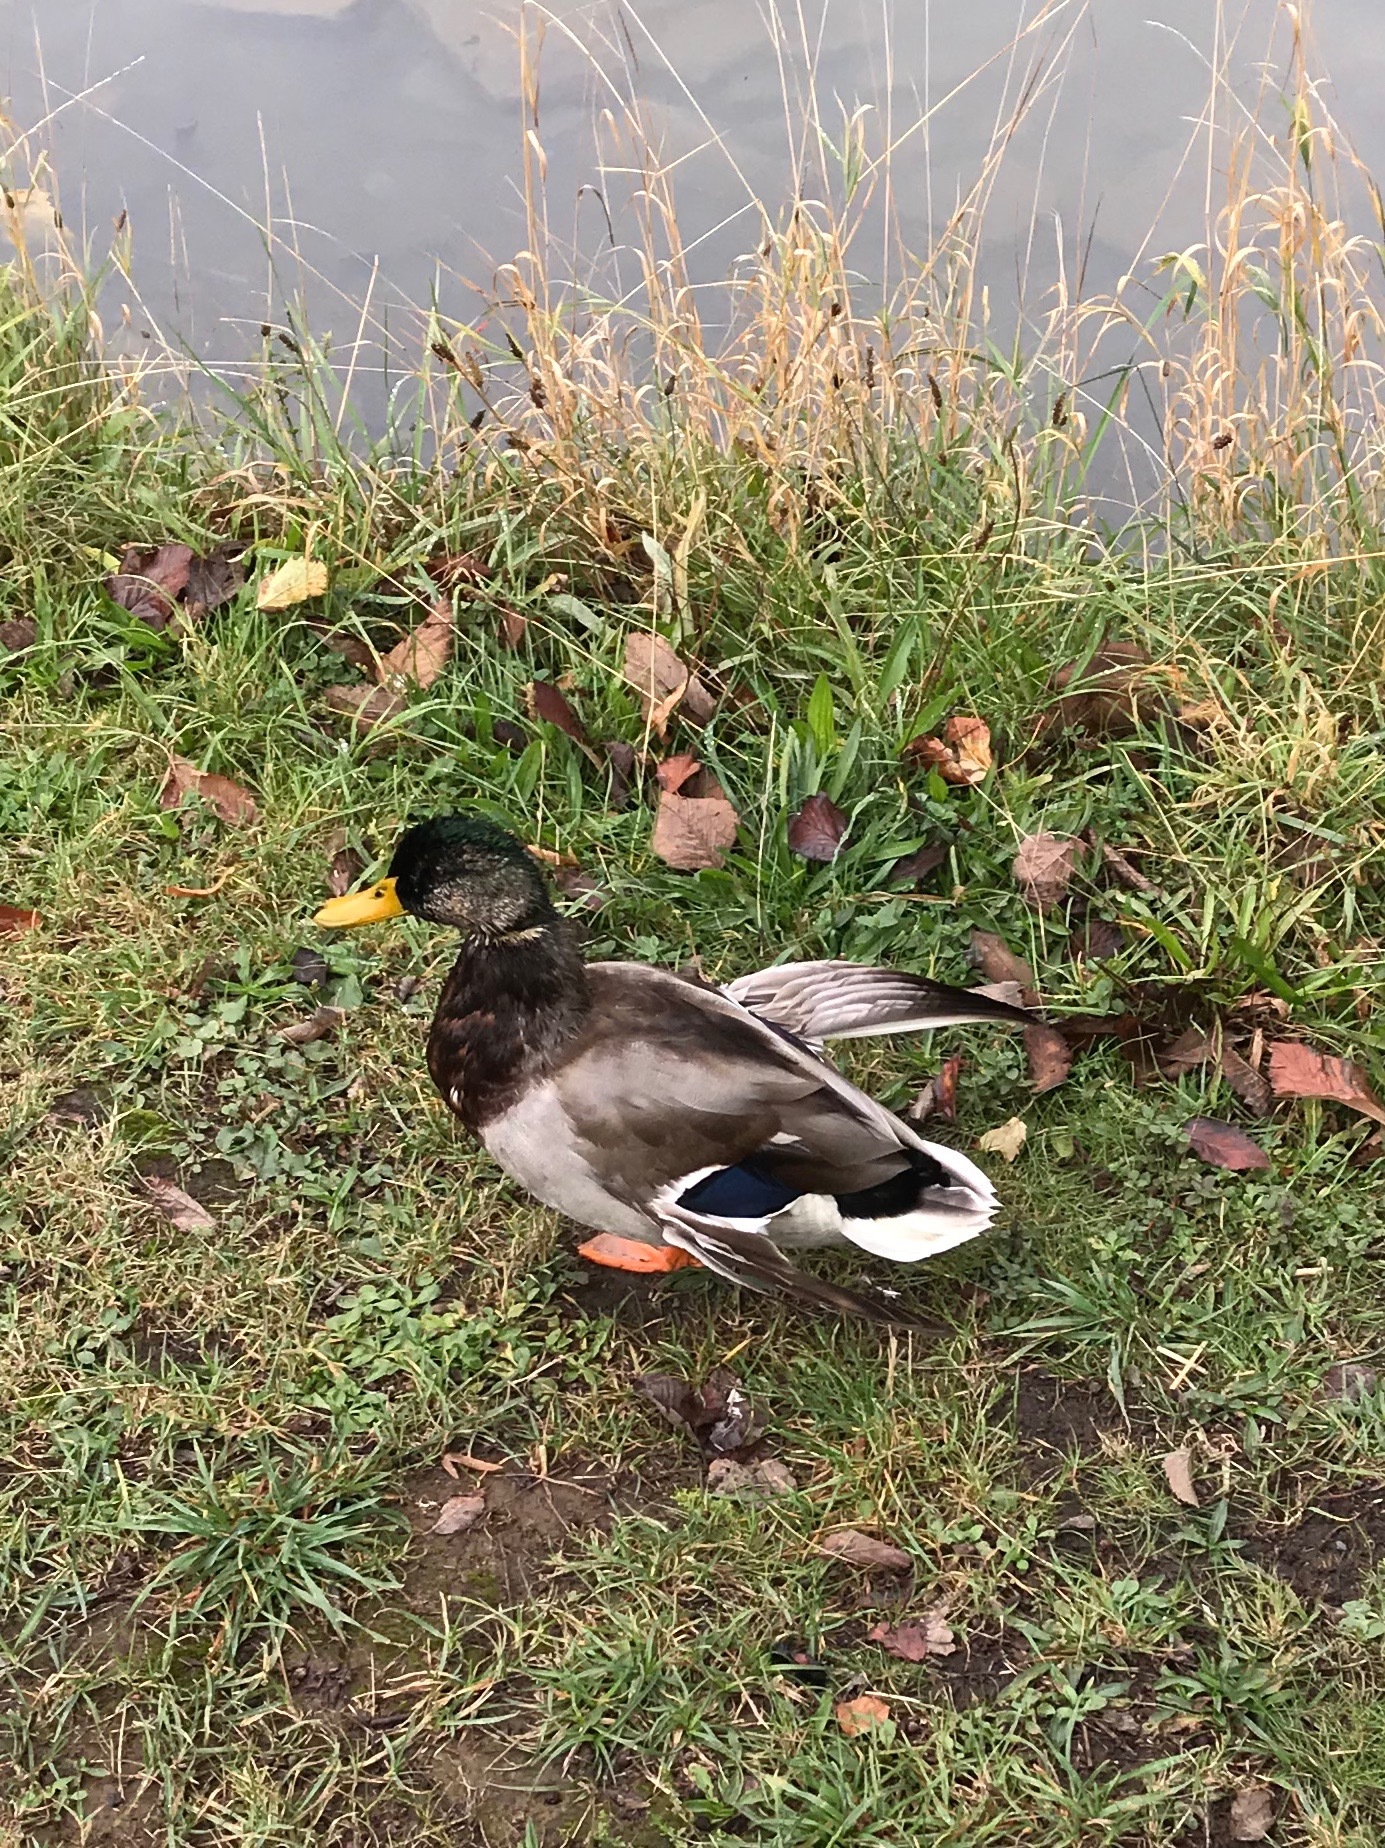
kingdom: Animalia
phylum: Chordata
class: Aves
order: Anseriformes
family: Anatidae
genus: Anas
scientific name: Anas platyrhynchos
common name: Mallard
